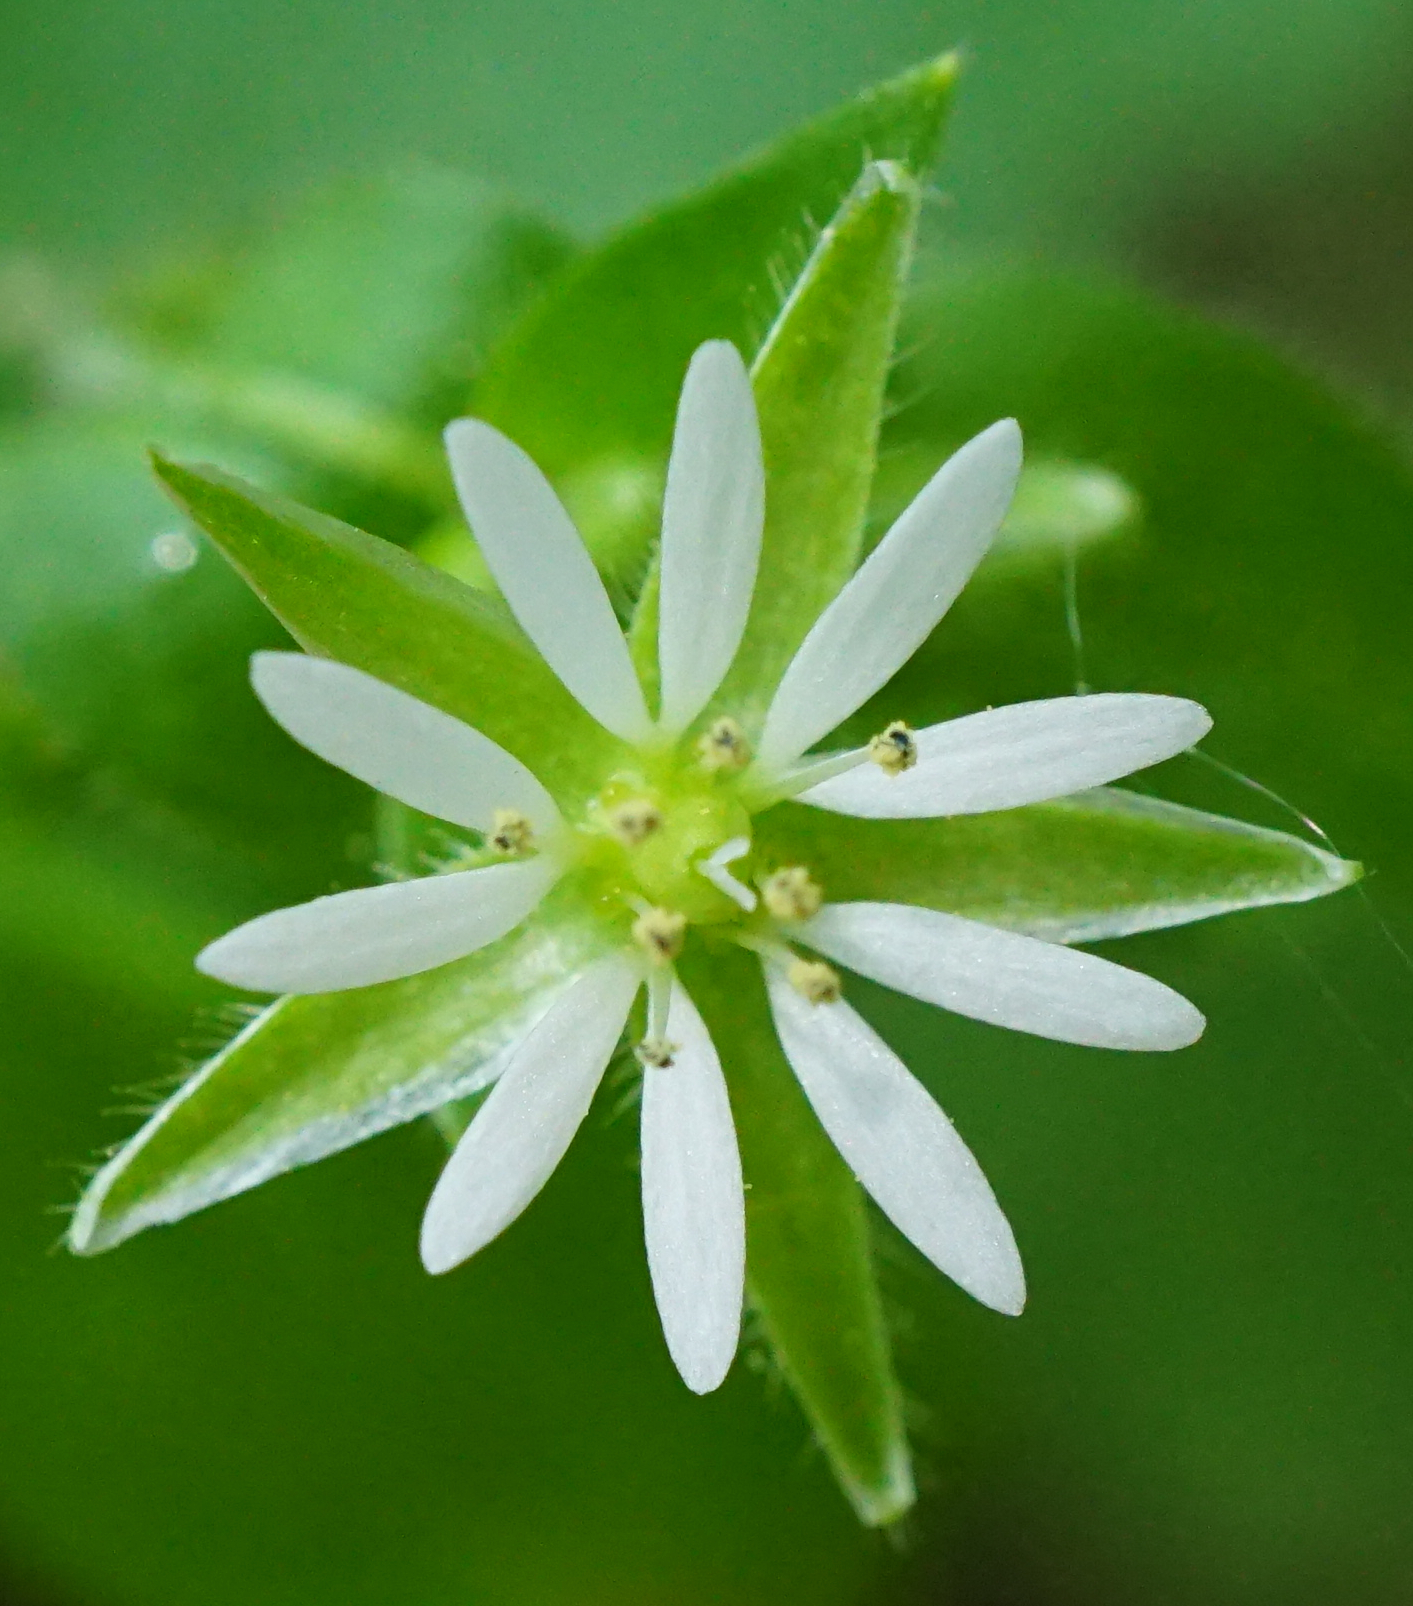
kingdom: Plantae
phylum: Tracheophyta
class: Magnoliopsida
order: Caryophyllales
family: Caryophyllaceae
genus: Stellaria
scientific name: Stellaria ruderalis
